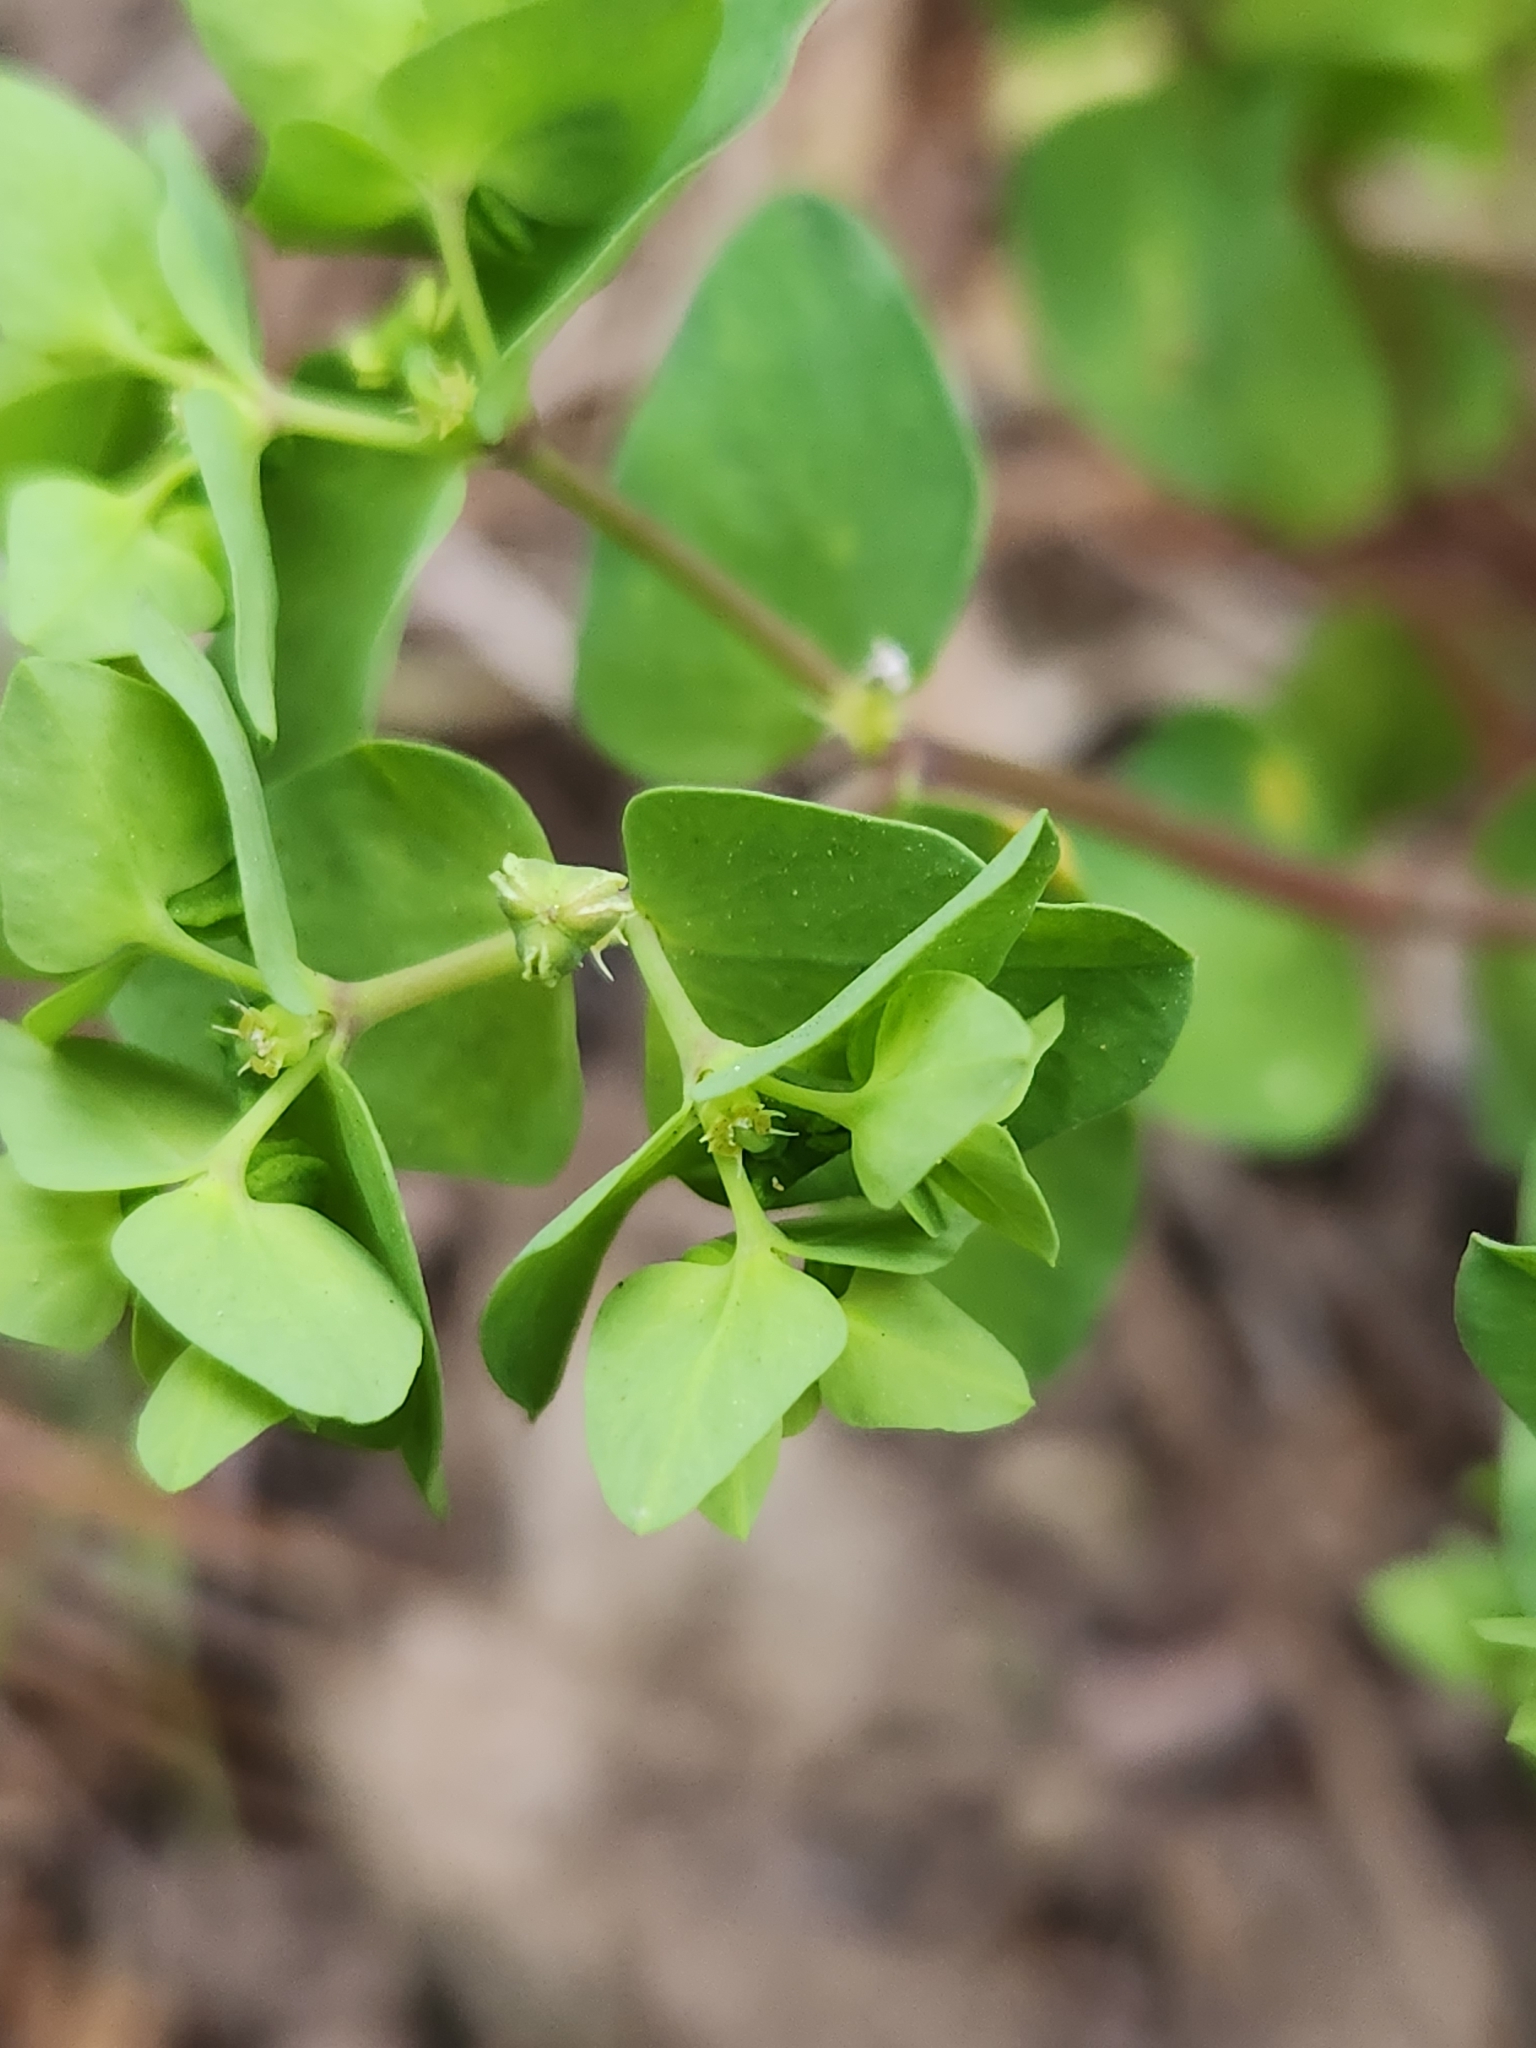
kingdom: Plantae
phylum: Tracheophyta
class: Magnoliopsida
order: Malpighiales
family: Euphorbiaceae
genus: Euphorbia
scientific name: Euphorbia peplus
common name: Petty spurge
